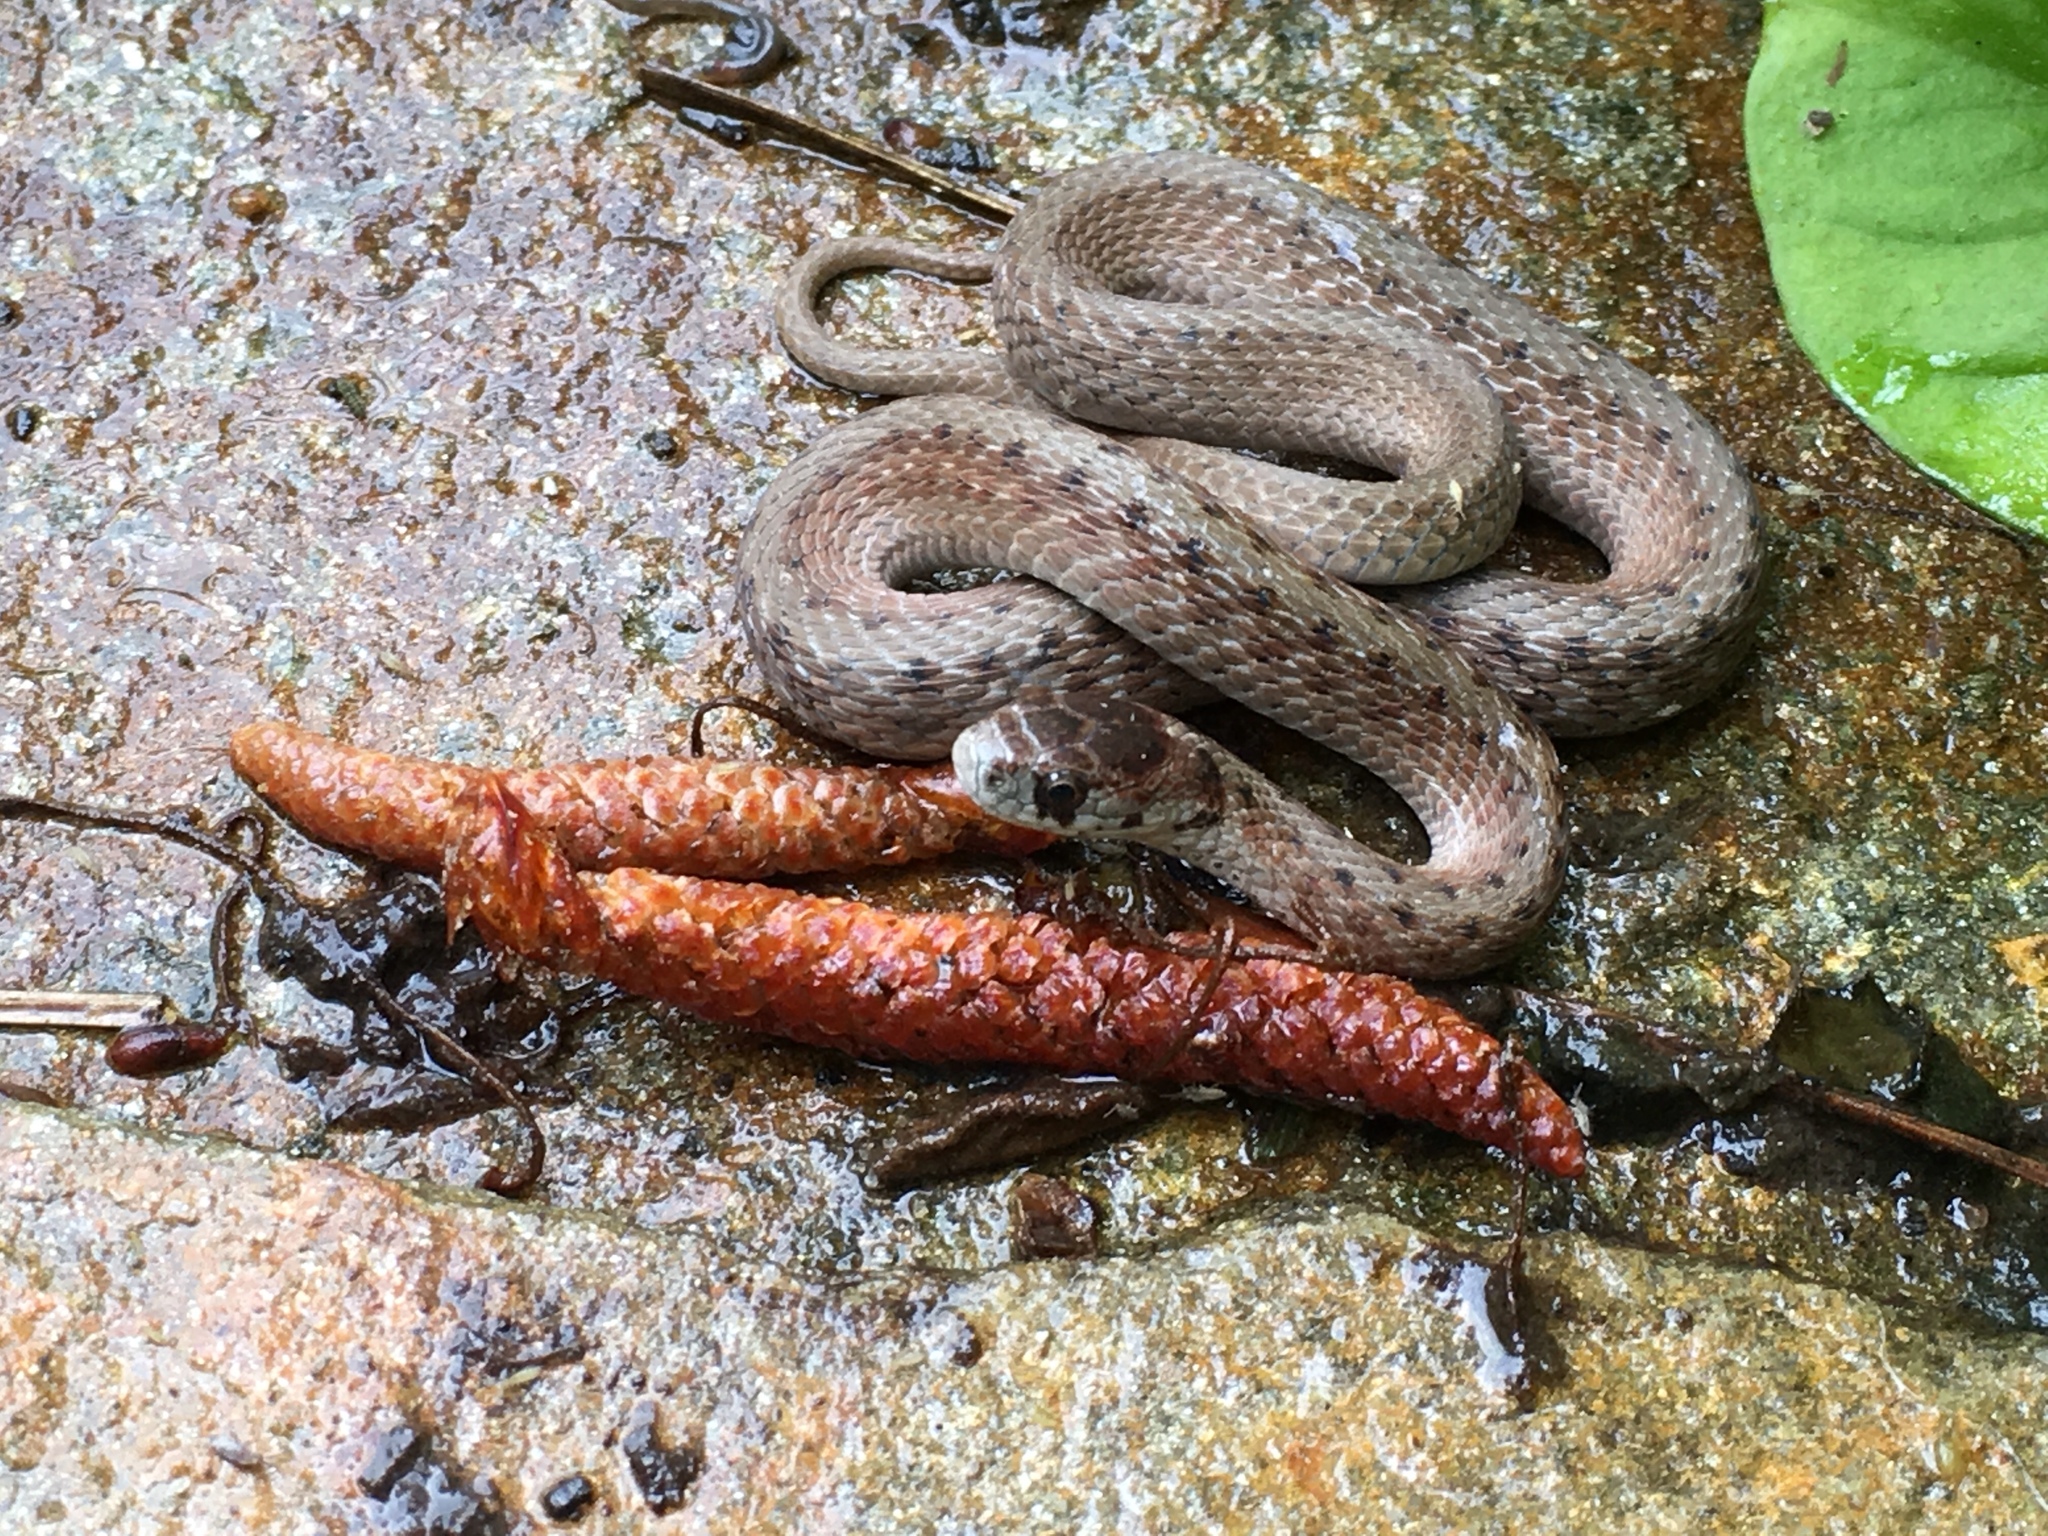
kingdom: Animalia
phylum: Chordata
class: Squamata
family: Colubridae
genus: Storeria
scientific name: Storeria dekayi
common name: (dekay’s) brown snake
